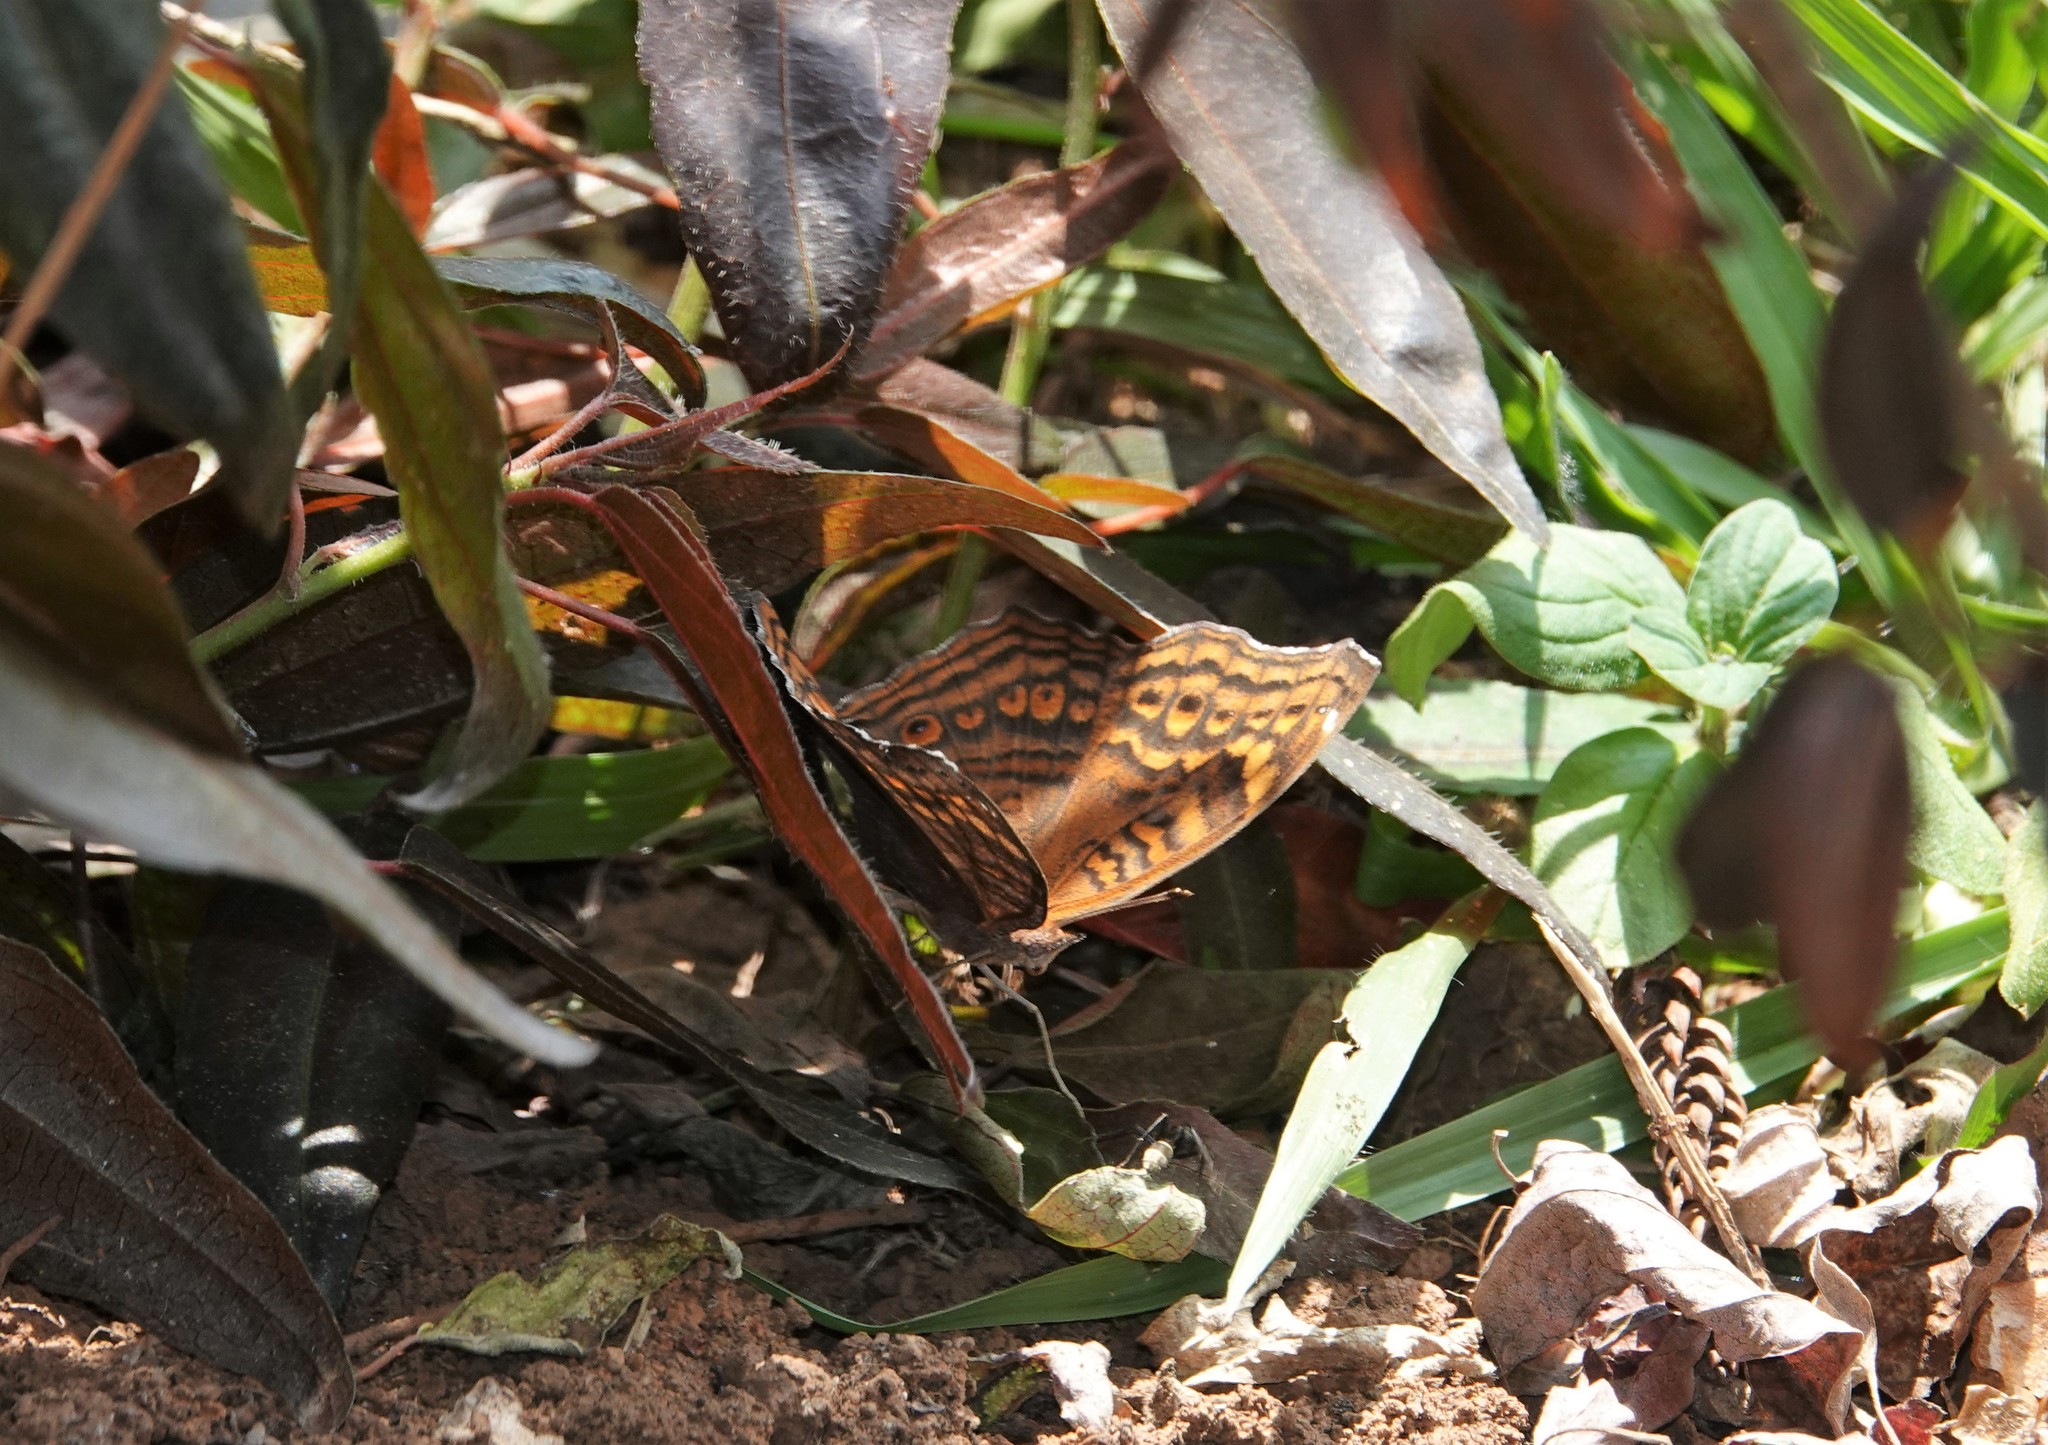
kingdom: Animalia
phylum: Arthropoda
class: Insecta
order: Lepidoptera
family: Nymphalidae
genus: Junonia
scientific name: Junonia chorimene
